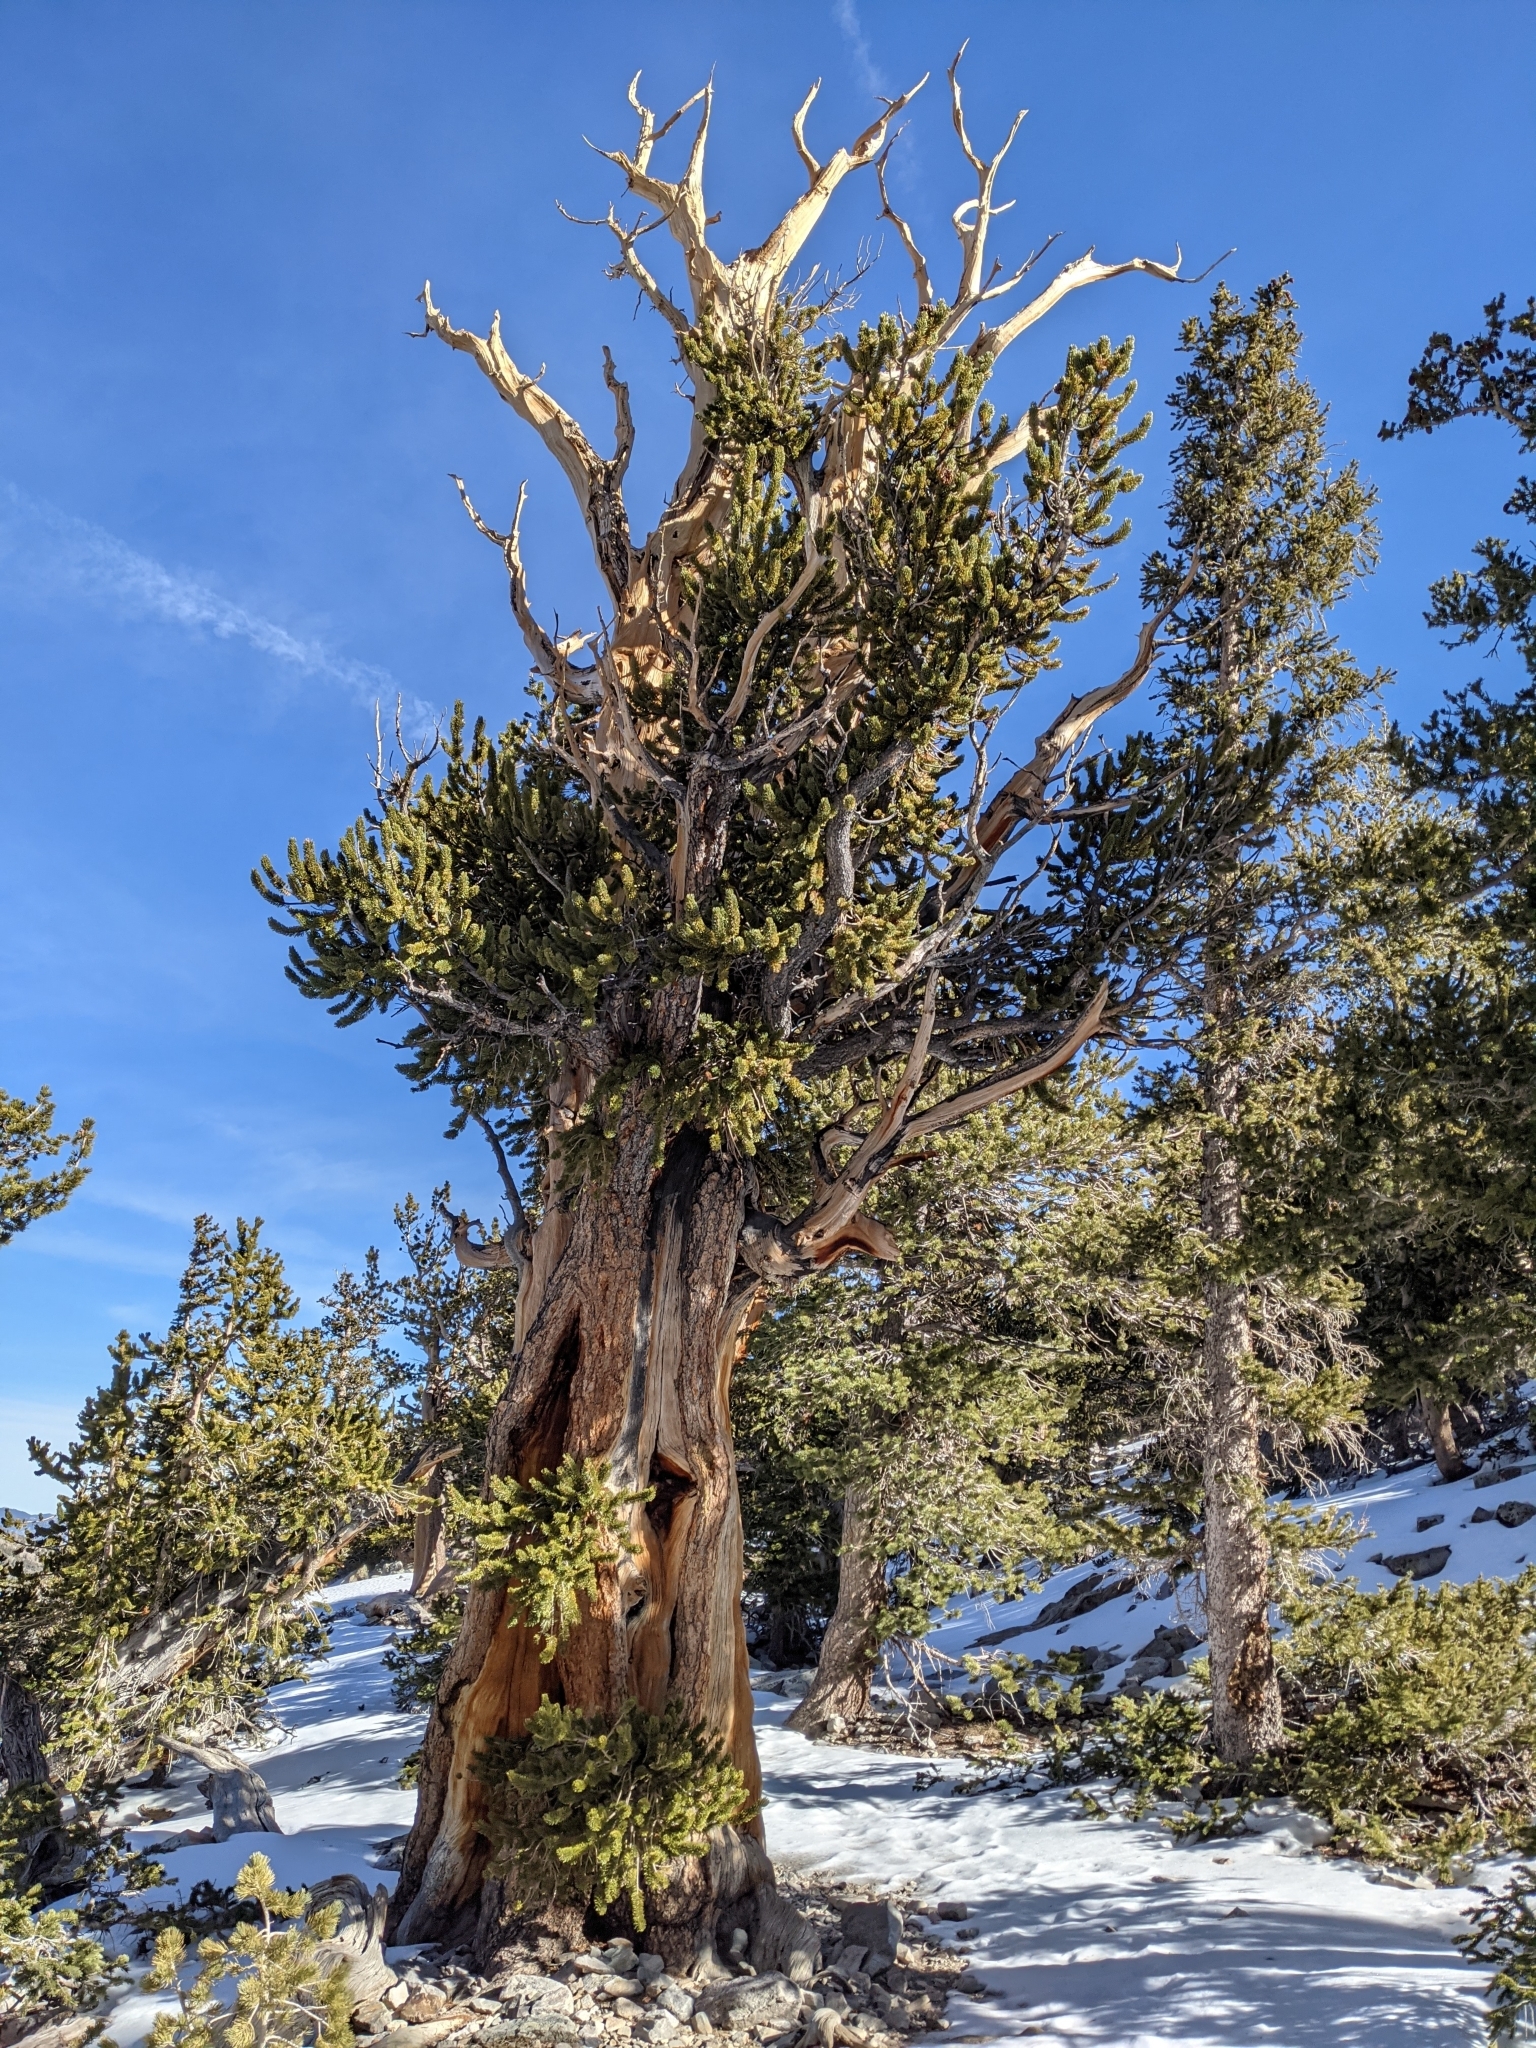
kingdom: Plantae
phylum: Tracheophyta
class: Pinopsida
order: Pinales
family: Pinaceae
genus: Pinus
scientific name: Pinus longaeva
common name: Intermountain bristlecone pine
